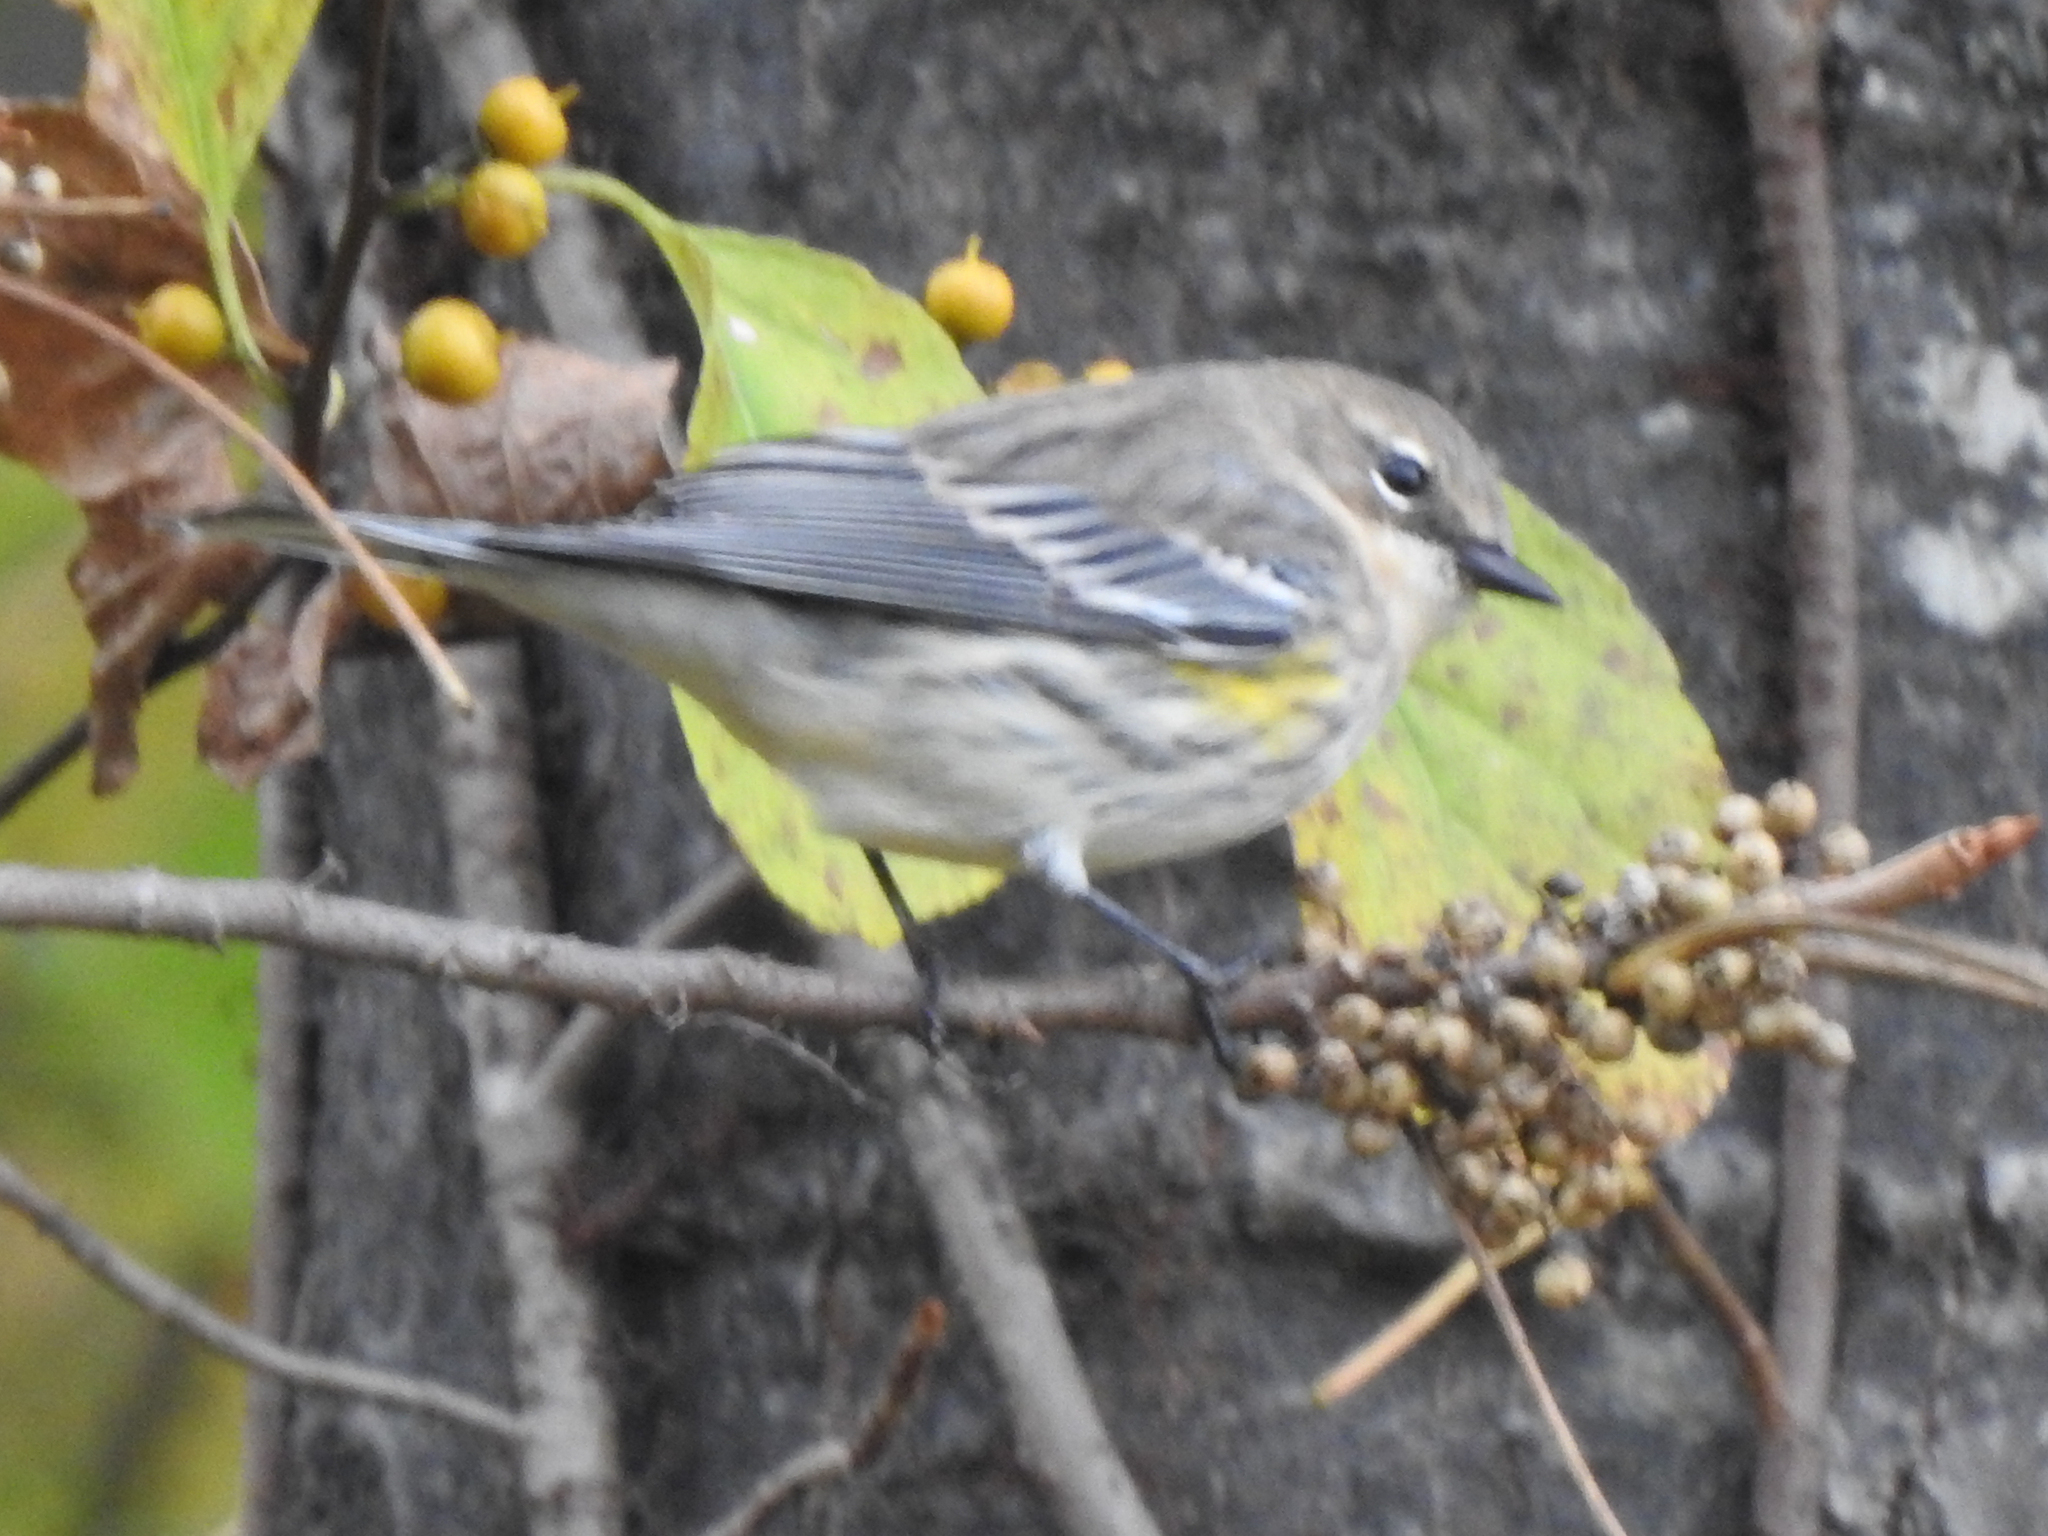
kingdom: Animalia
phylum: Chordata
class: Aves
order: Passeriformes
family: Parulidae
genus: Setophaga
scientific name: Setophaga coronata
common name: Myrtle warbler
